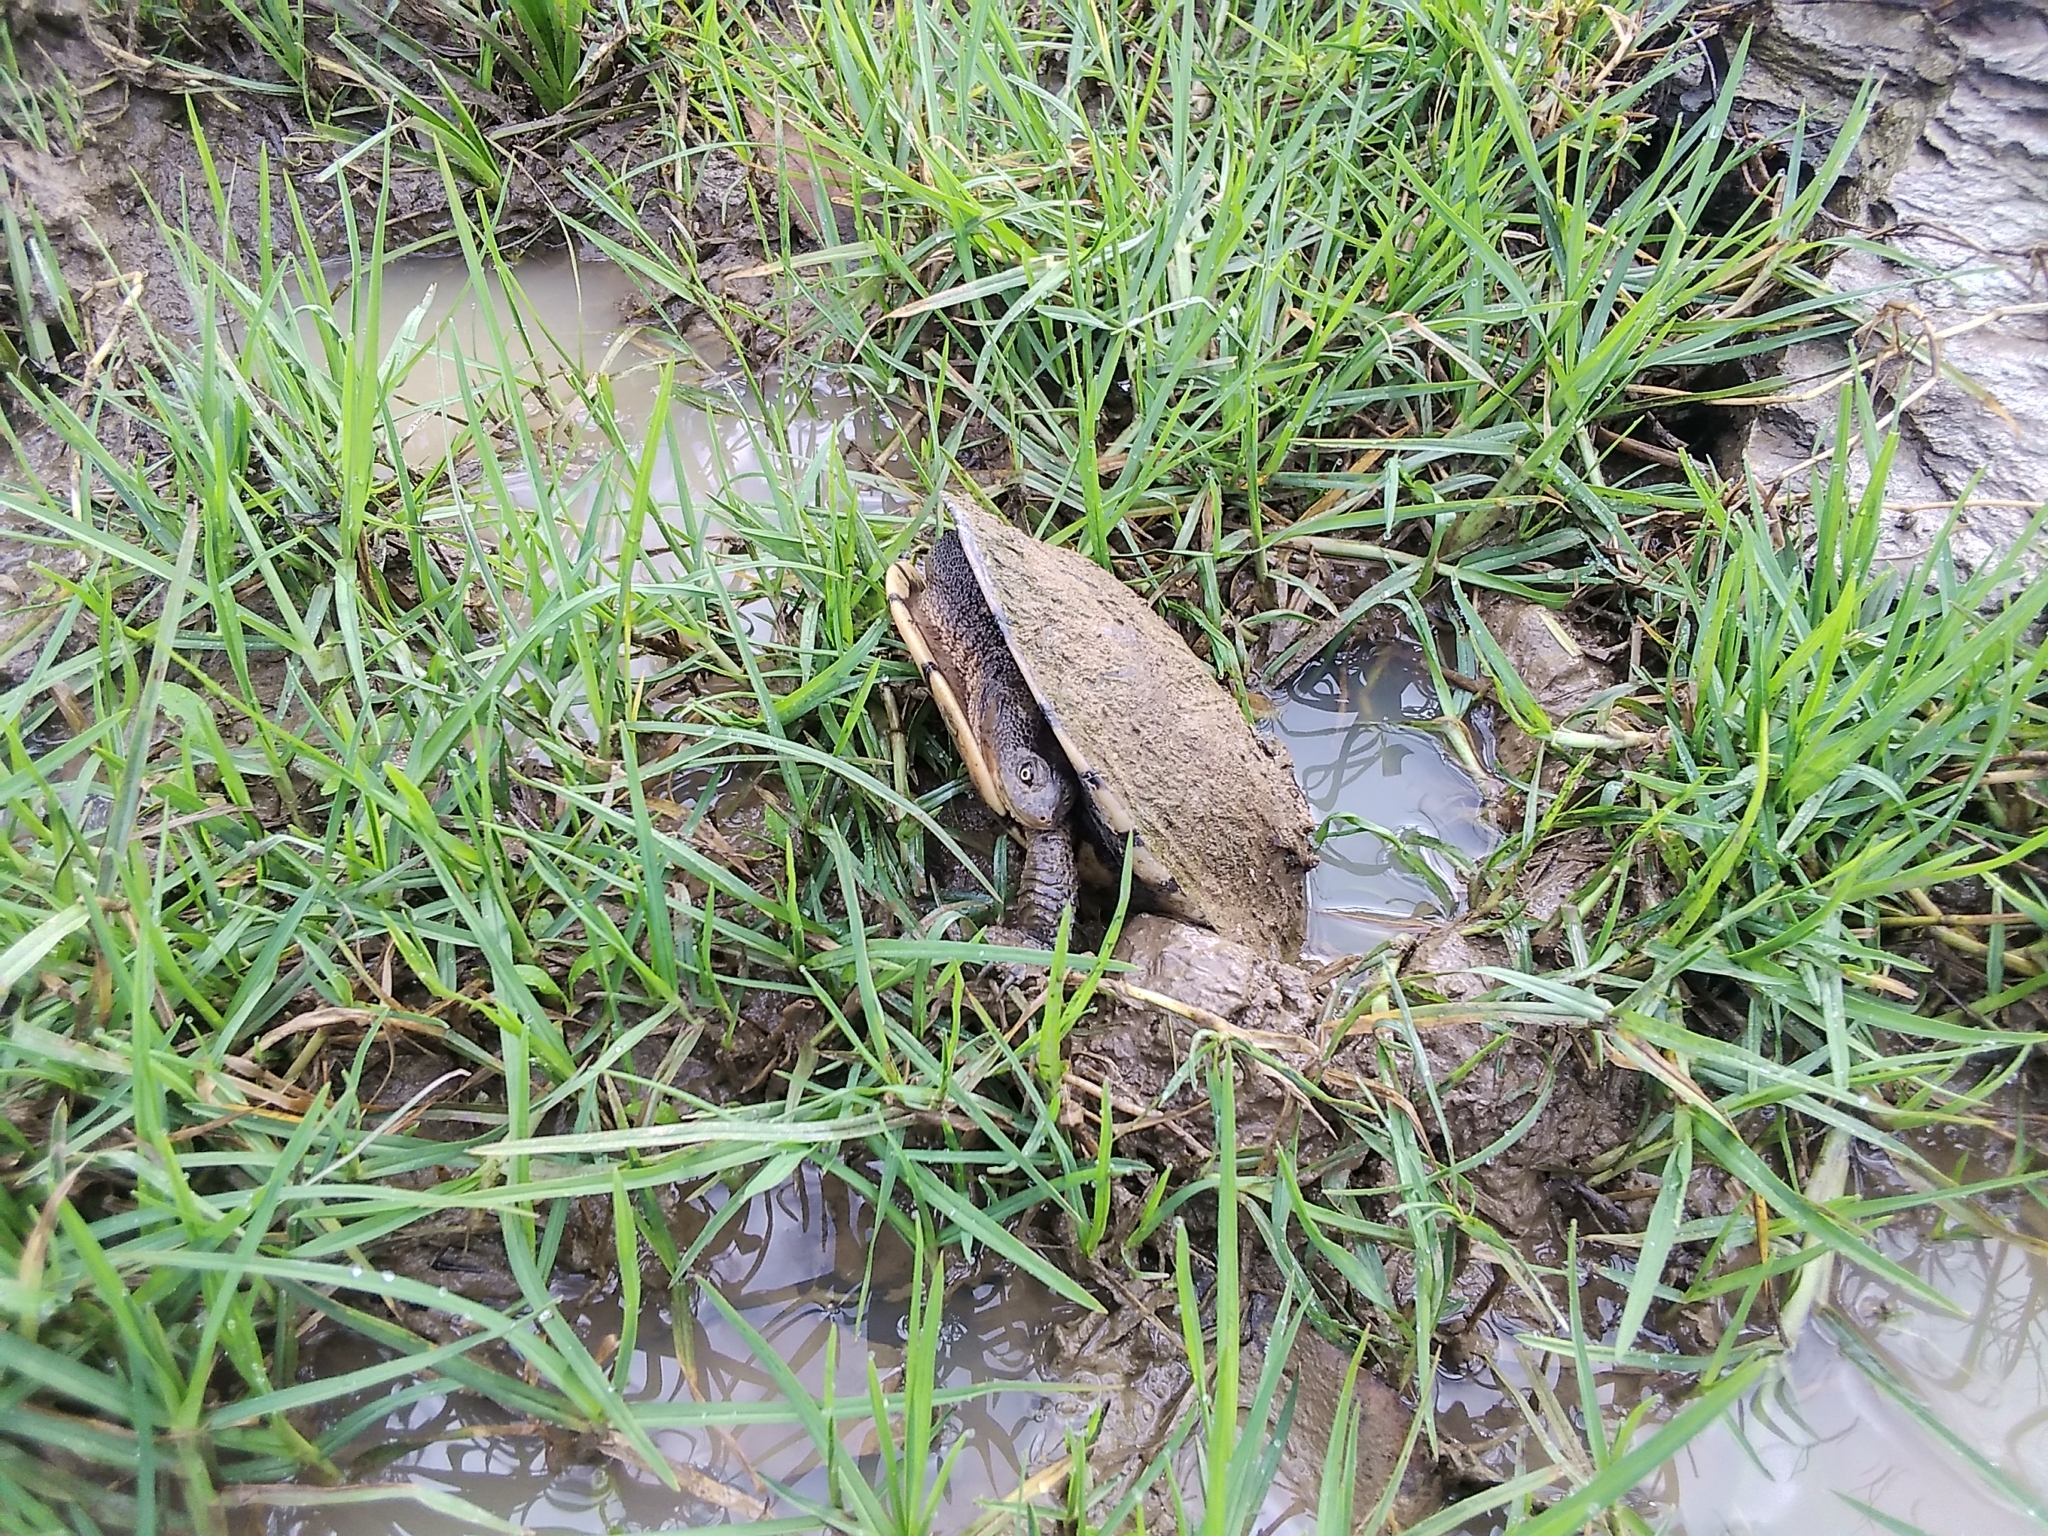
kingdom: Animalia
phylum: Chordata
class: Testudines
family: Chelidae
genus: Chelodina
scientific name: Chelodina longicollis
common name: Eastern snake-necked turtle
